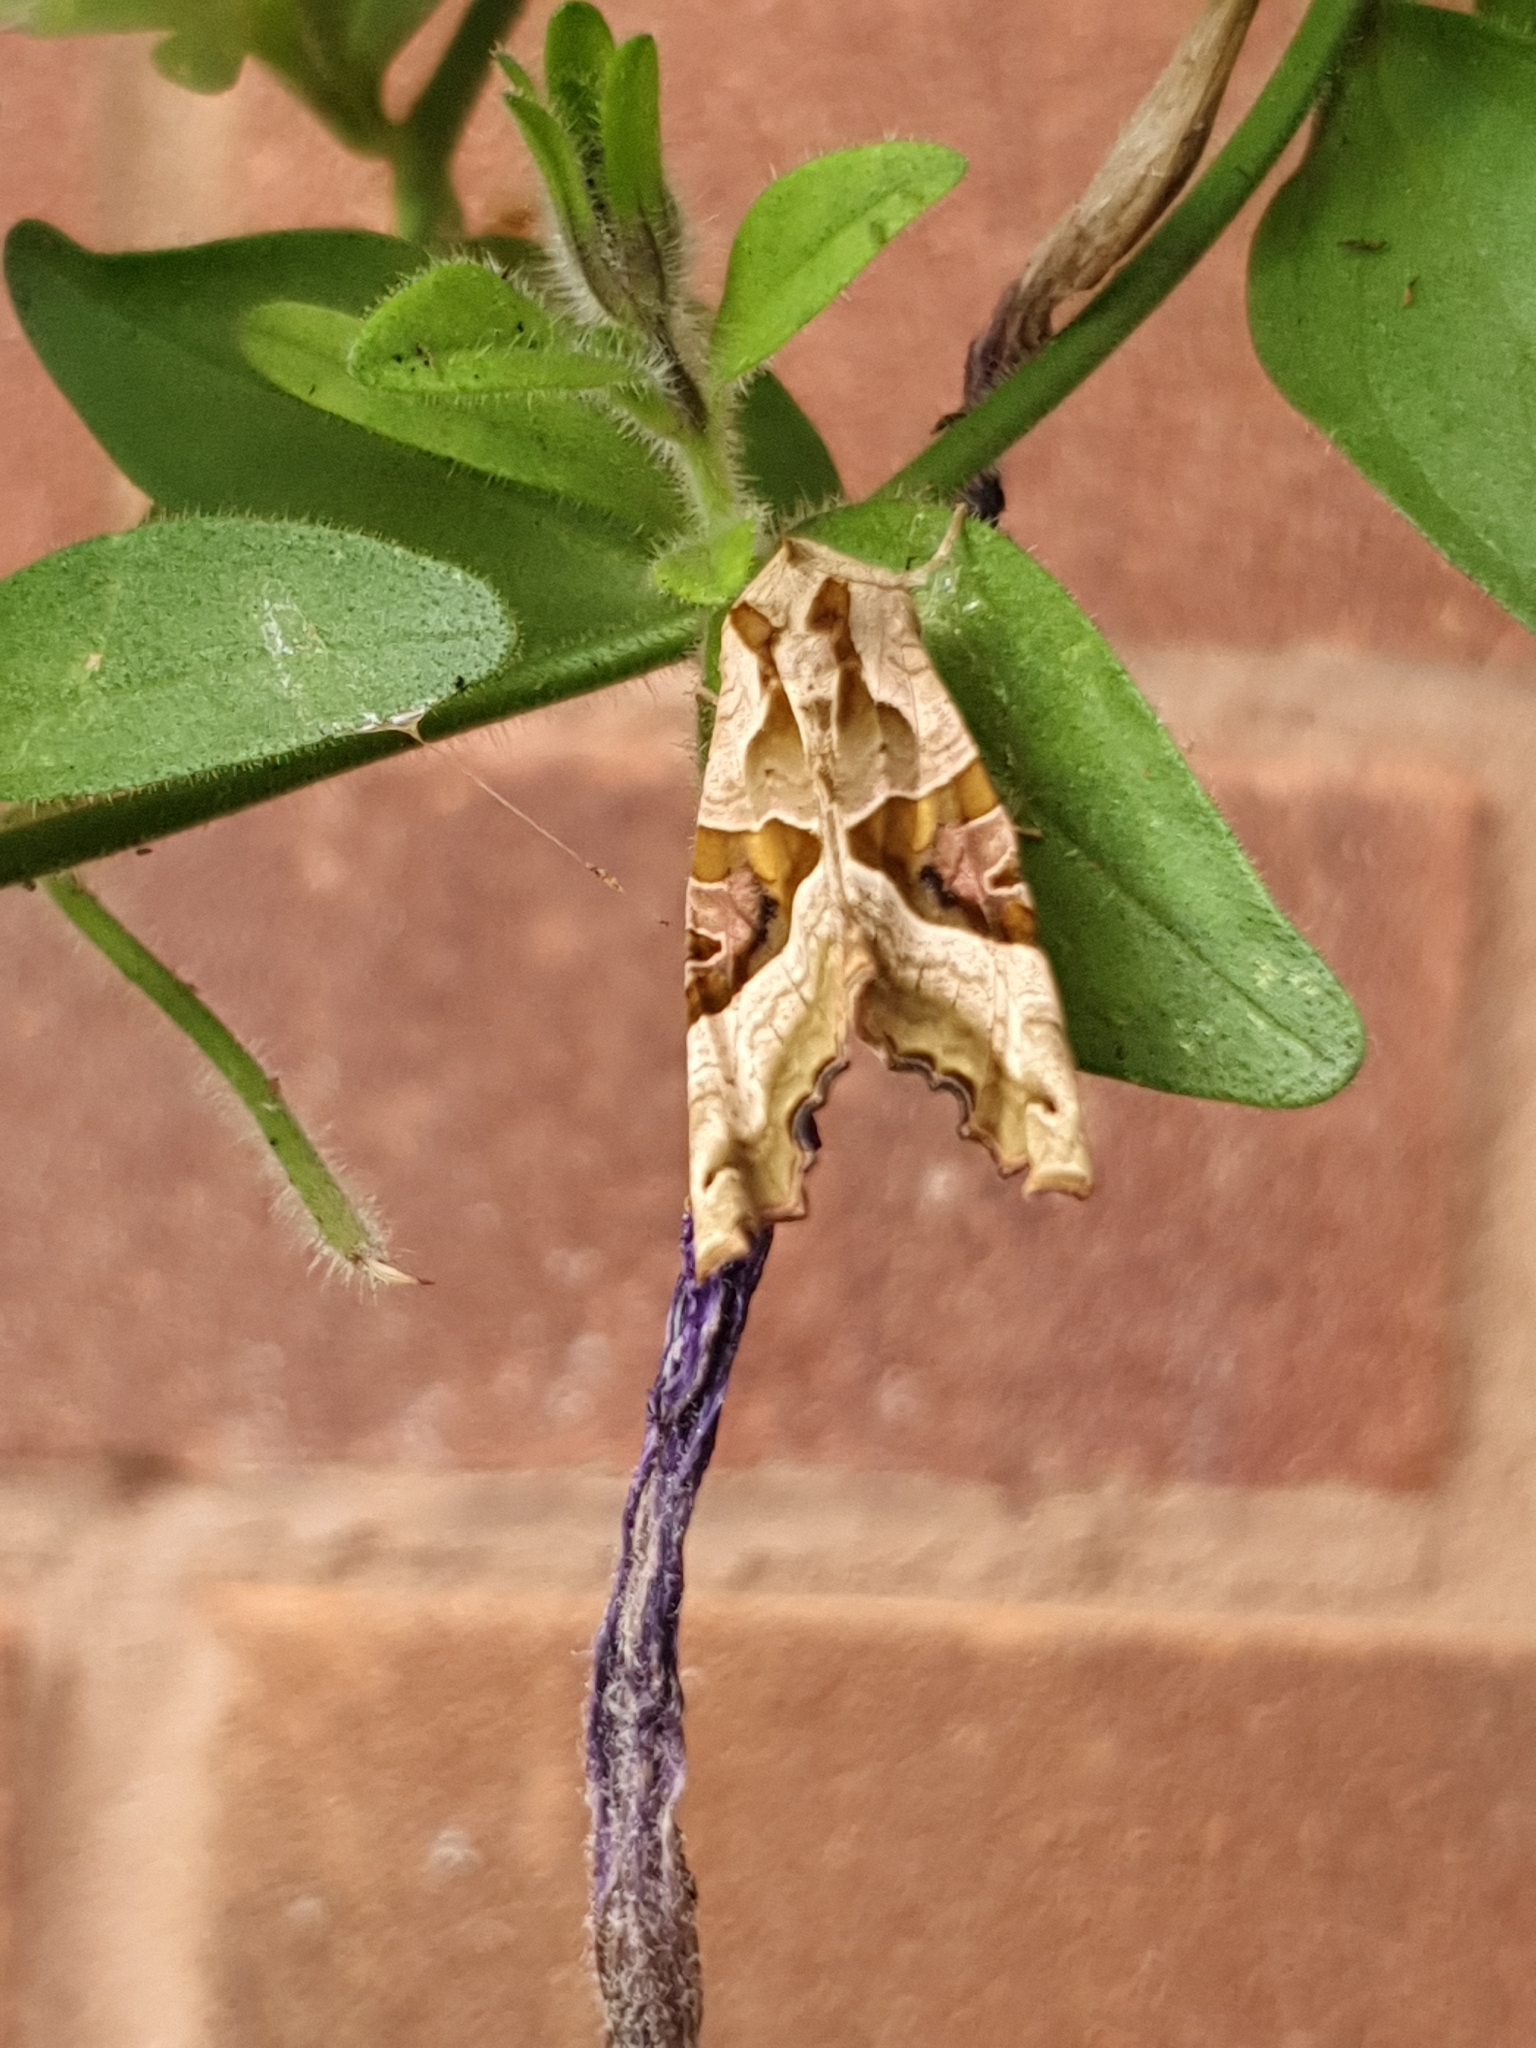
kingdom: Animalia
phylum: Arthropoda
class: Insecta
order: Lepidoptera
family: Noctuidae
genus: Phlogophora
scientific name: Phlogophora meticulosa
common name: Angle shades
